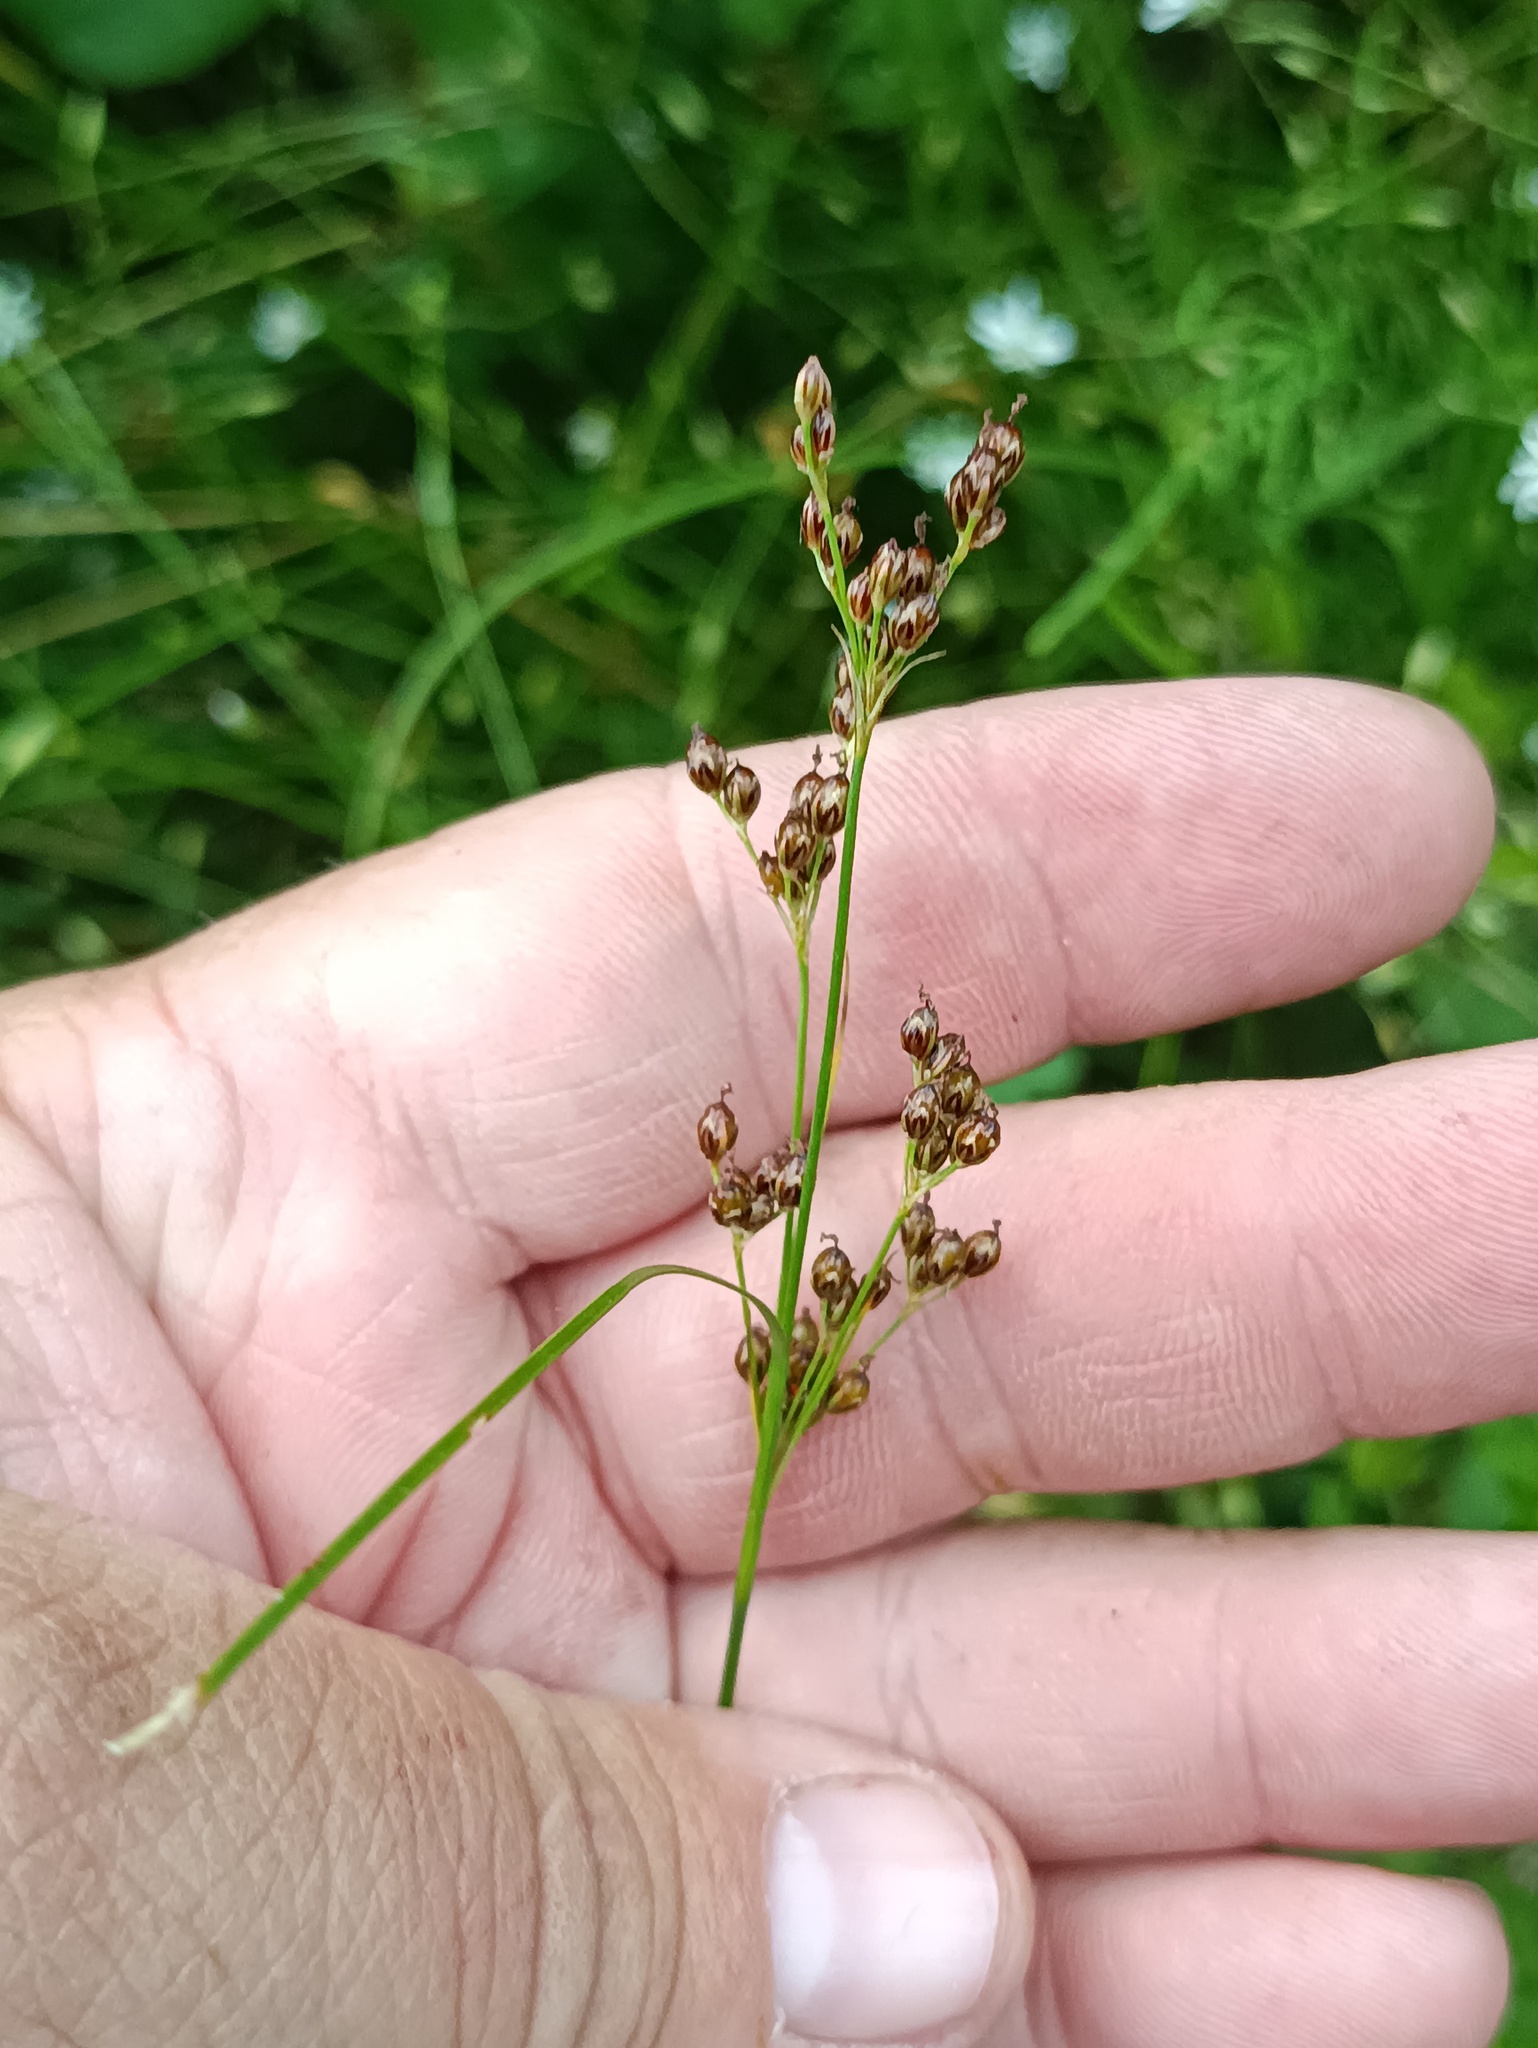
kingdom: Plantae
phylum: Tracheophyta
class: Liliopsida
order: Poales
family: Juncaceae
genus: Juncus
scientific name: Juncus compressus
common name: Round-fruited rush
